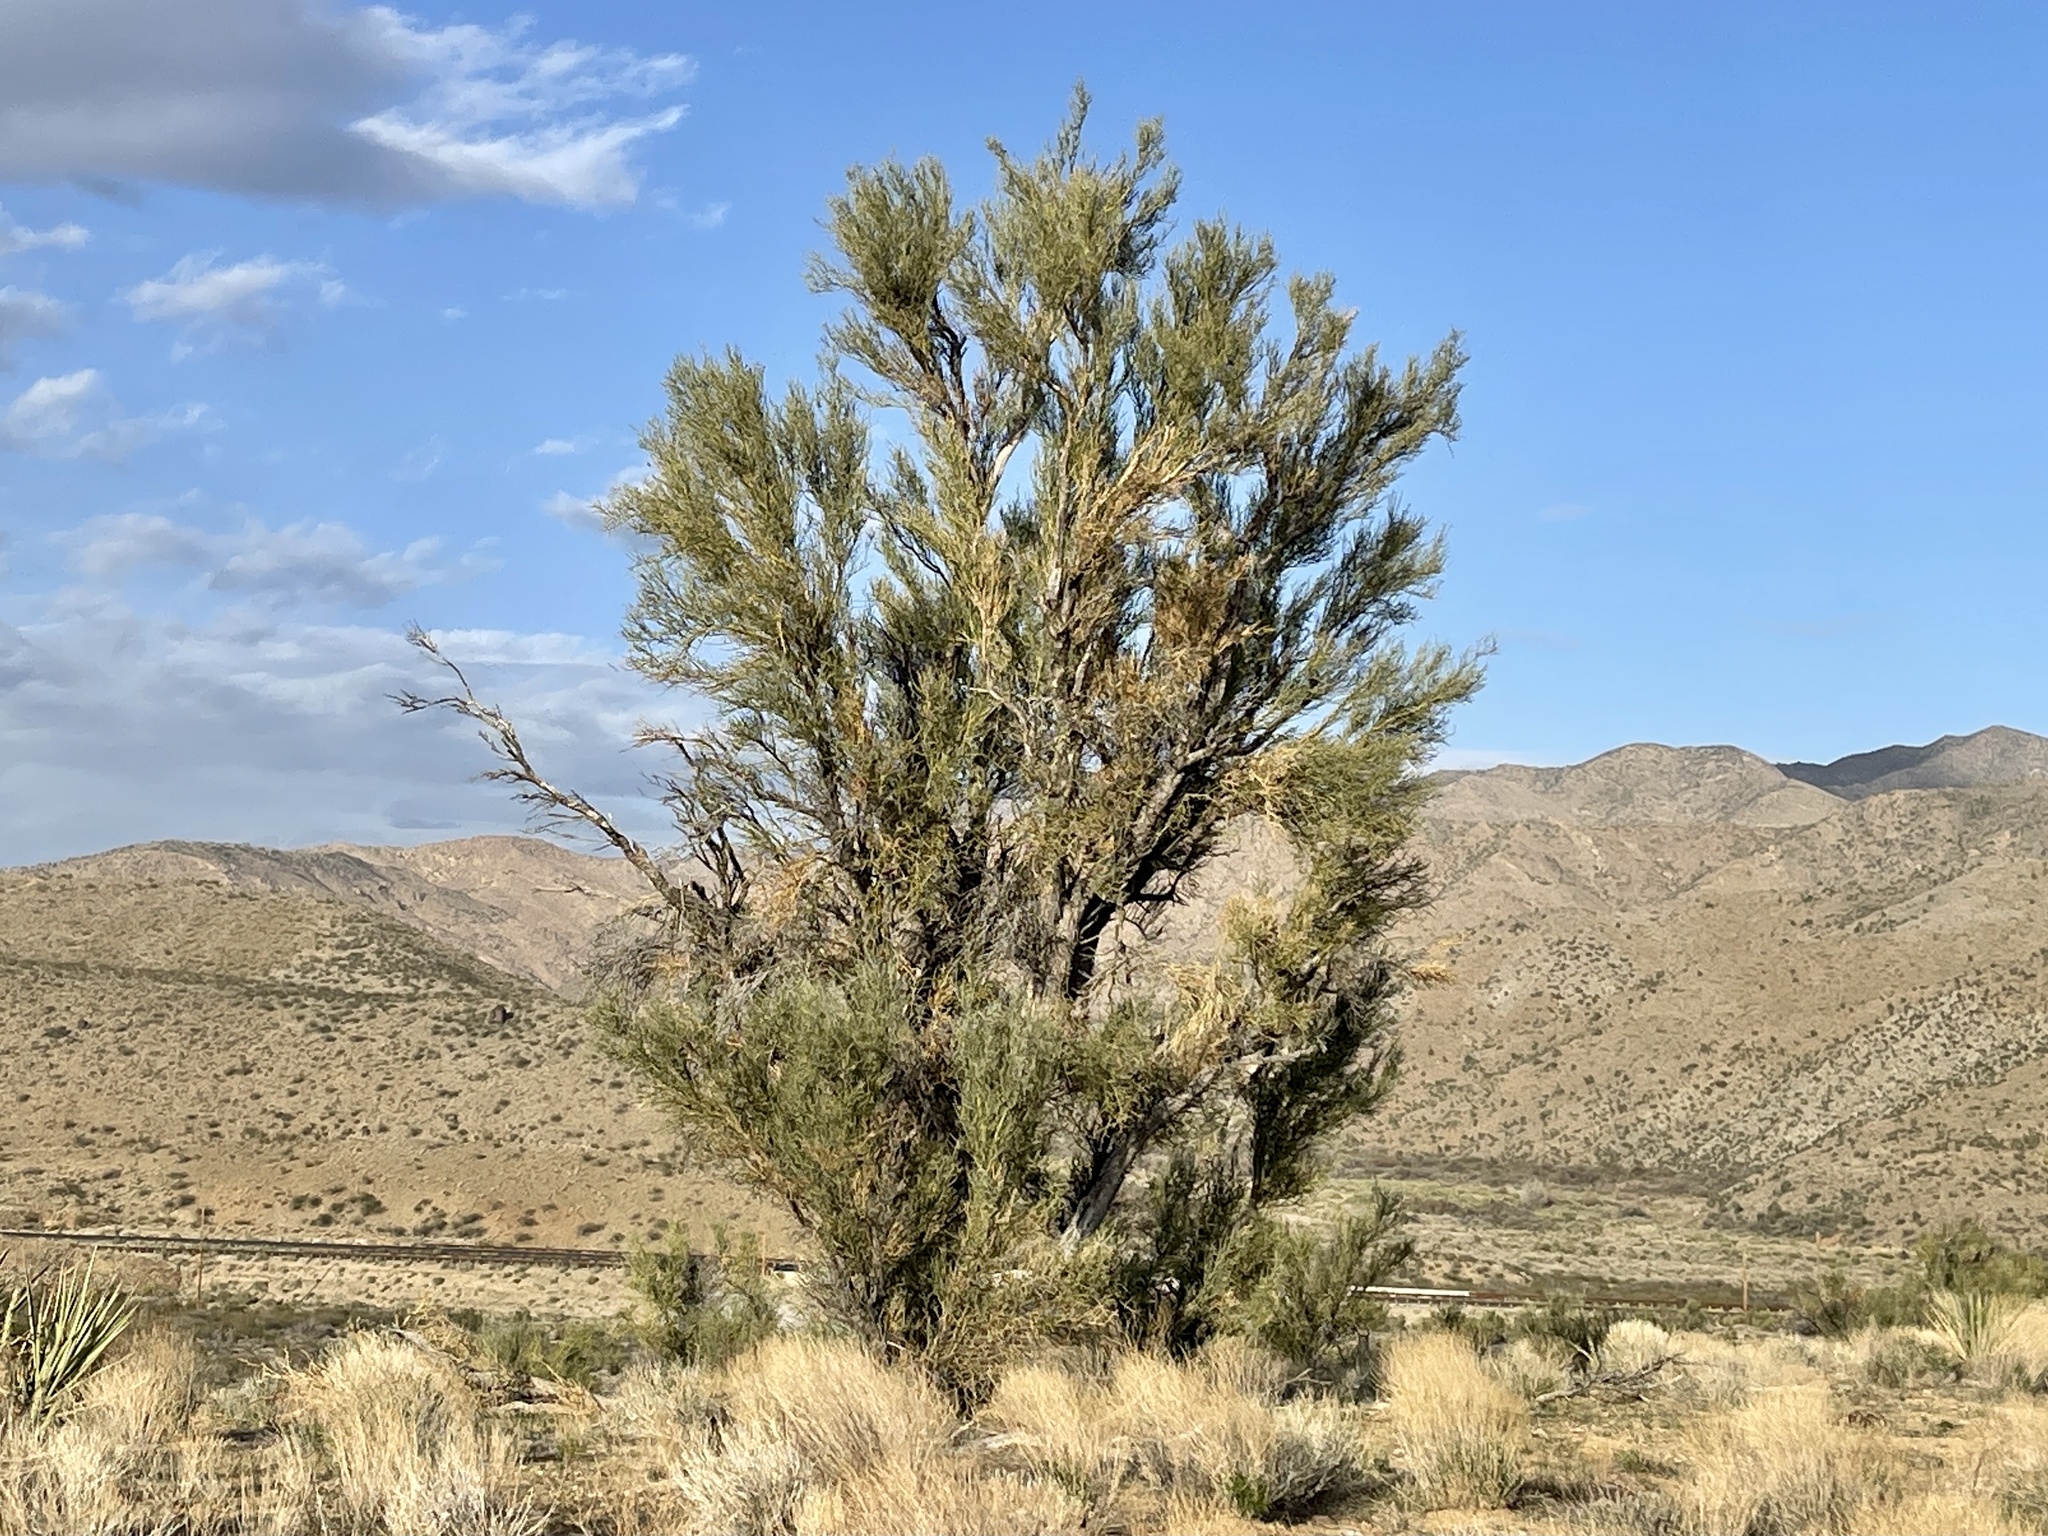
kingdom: Plantae
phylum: Tracheophyta
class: Magnoliopsida
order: Celastrales
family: Celastraceae
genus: Canotia
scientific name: Canotia holacantha
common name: Crucifixion thorns
